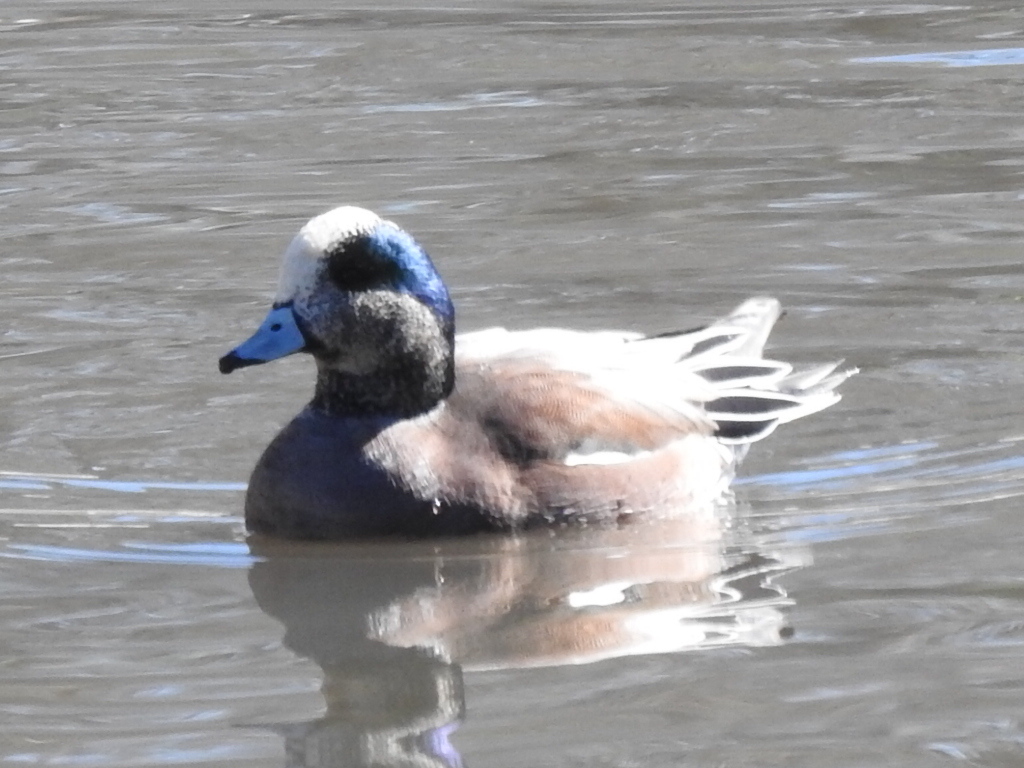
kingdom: Animalia
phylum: Chordata
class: Aves
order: Anseriformes
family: Anatidae
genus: Mareca
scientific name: Mareca americana
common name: American wigeon
